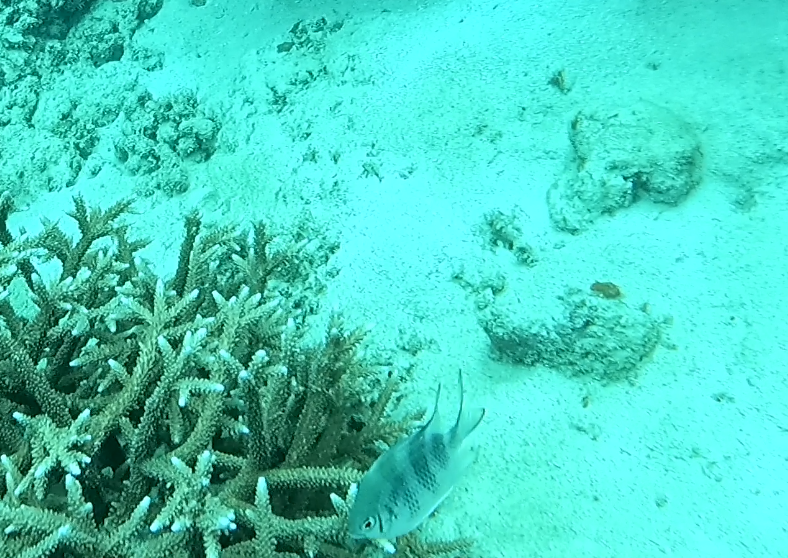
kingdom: Animalia
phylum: Chordata
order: Perciformes
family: Pomacentridae
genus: Amblyglyphidodon
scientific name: Amblyglyphidodon curacao
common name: Staghorn damsel
